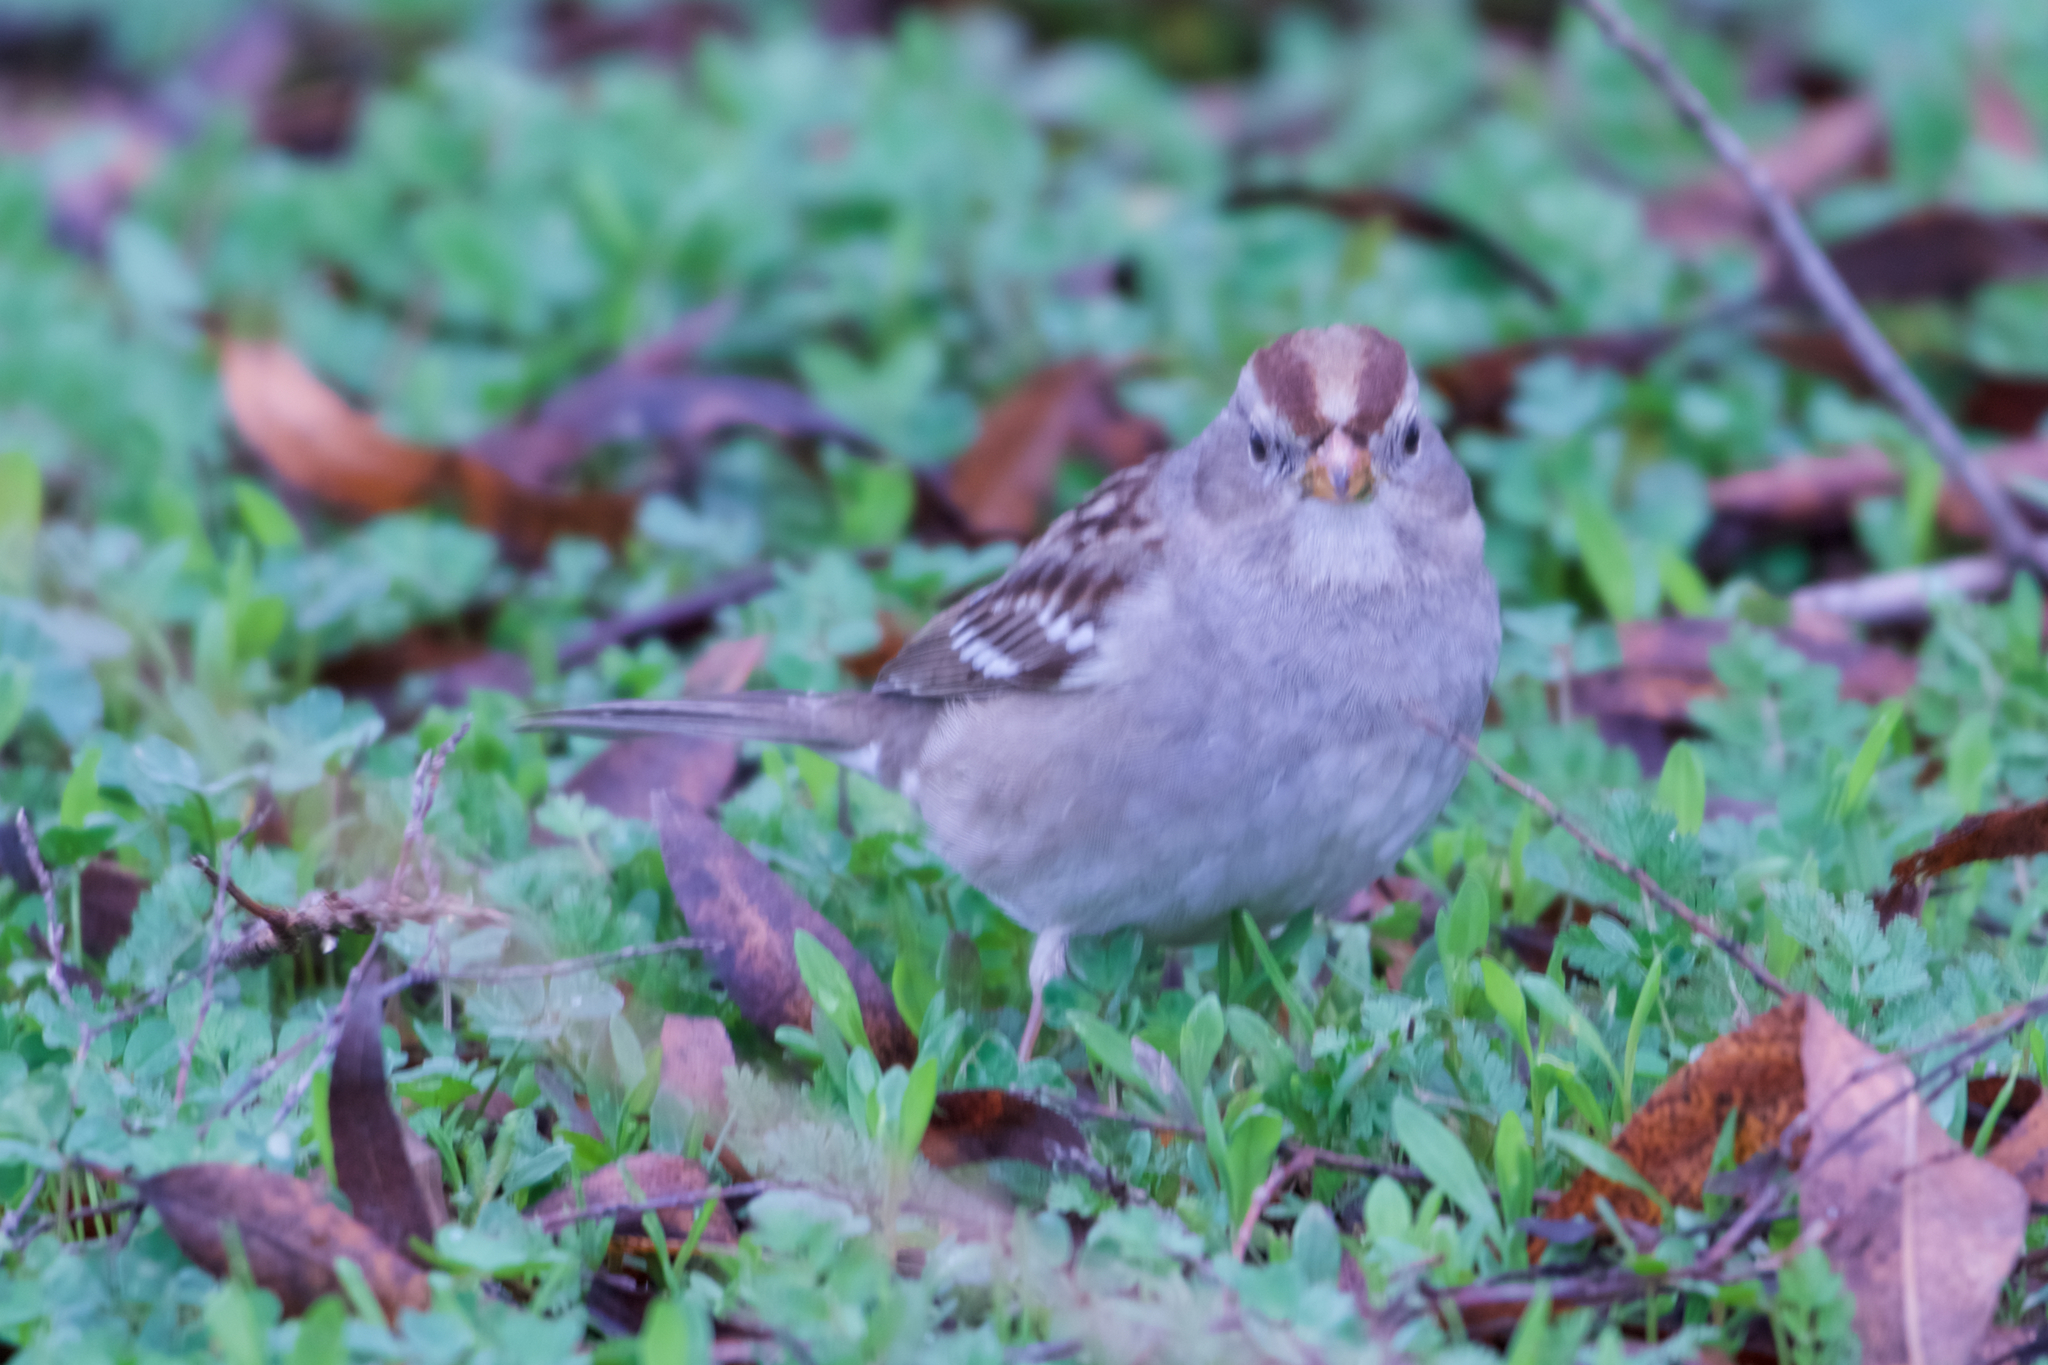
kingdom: Animalia
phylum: Chordata
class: Aves
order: Passeriformes
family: Passerellidae
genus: Zonotrichia
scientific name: Zonotrichia leucophrys
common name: White-crowned sparrow
